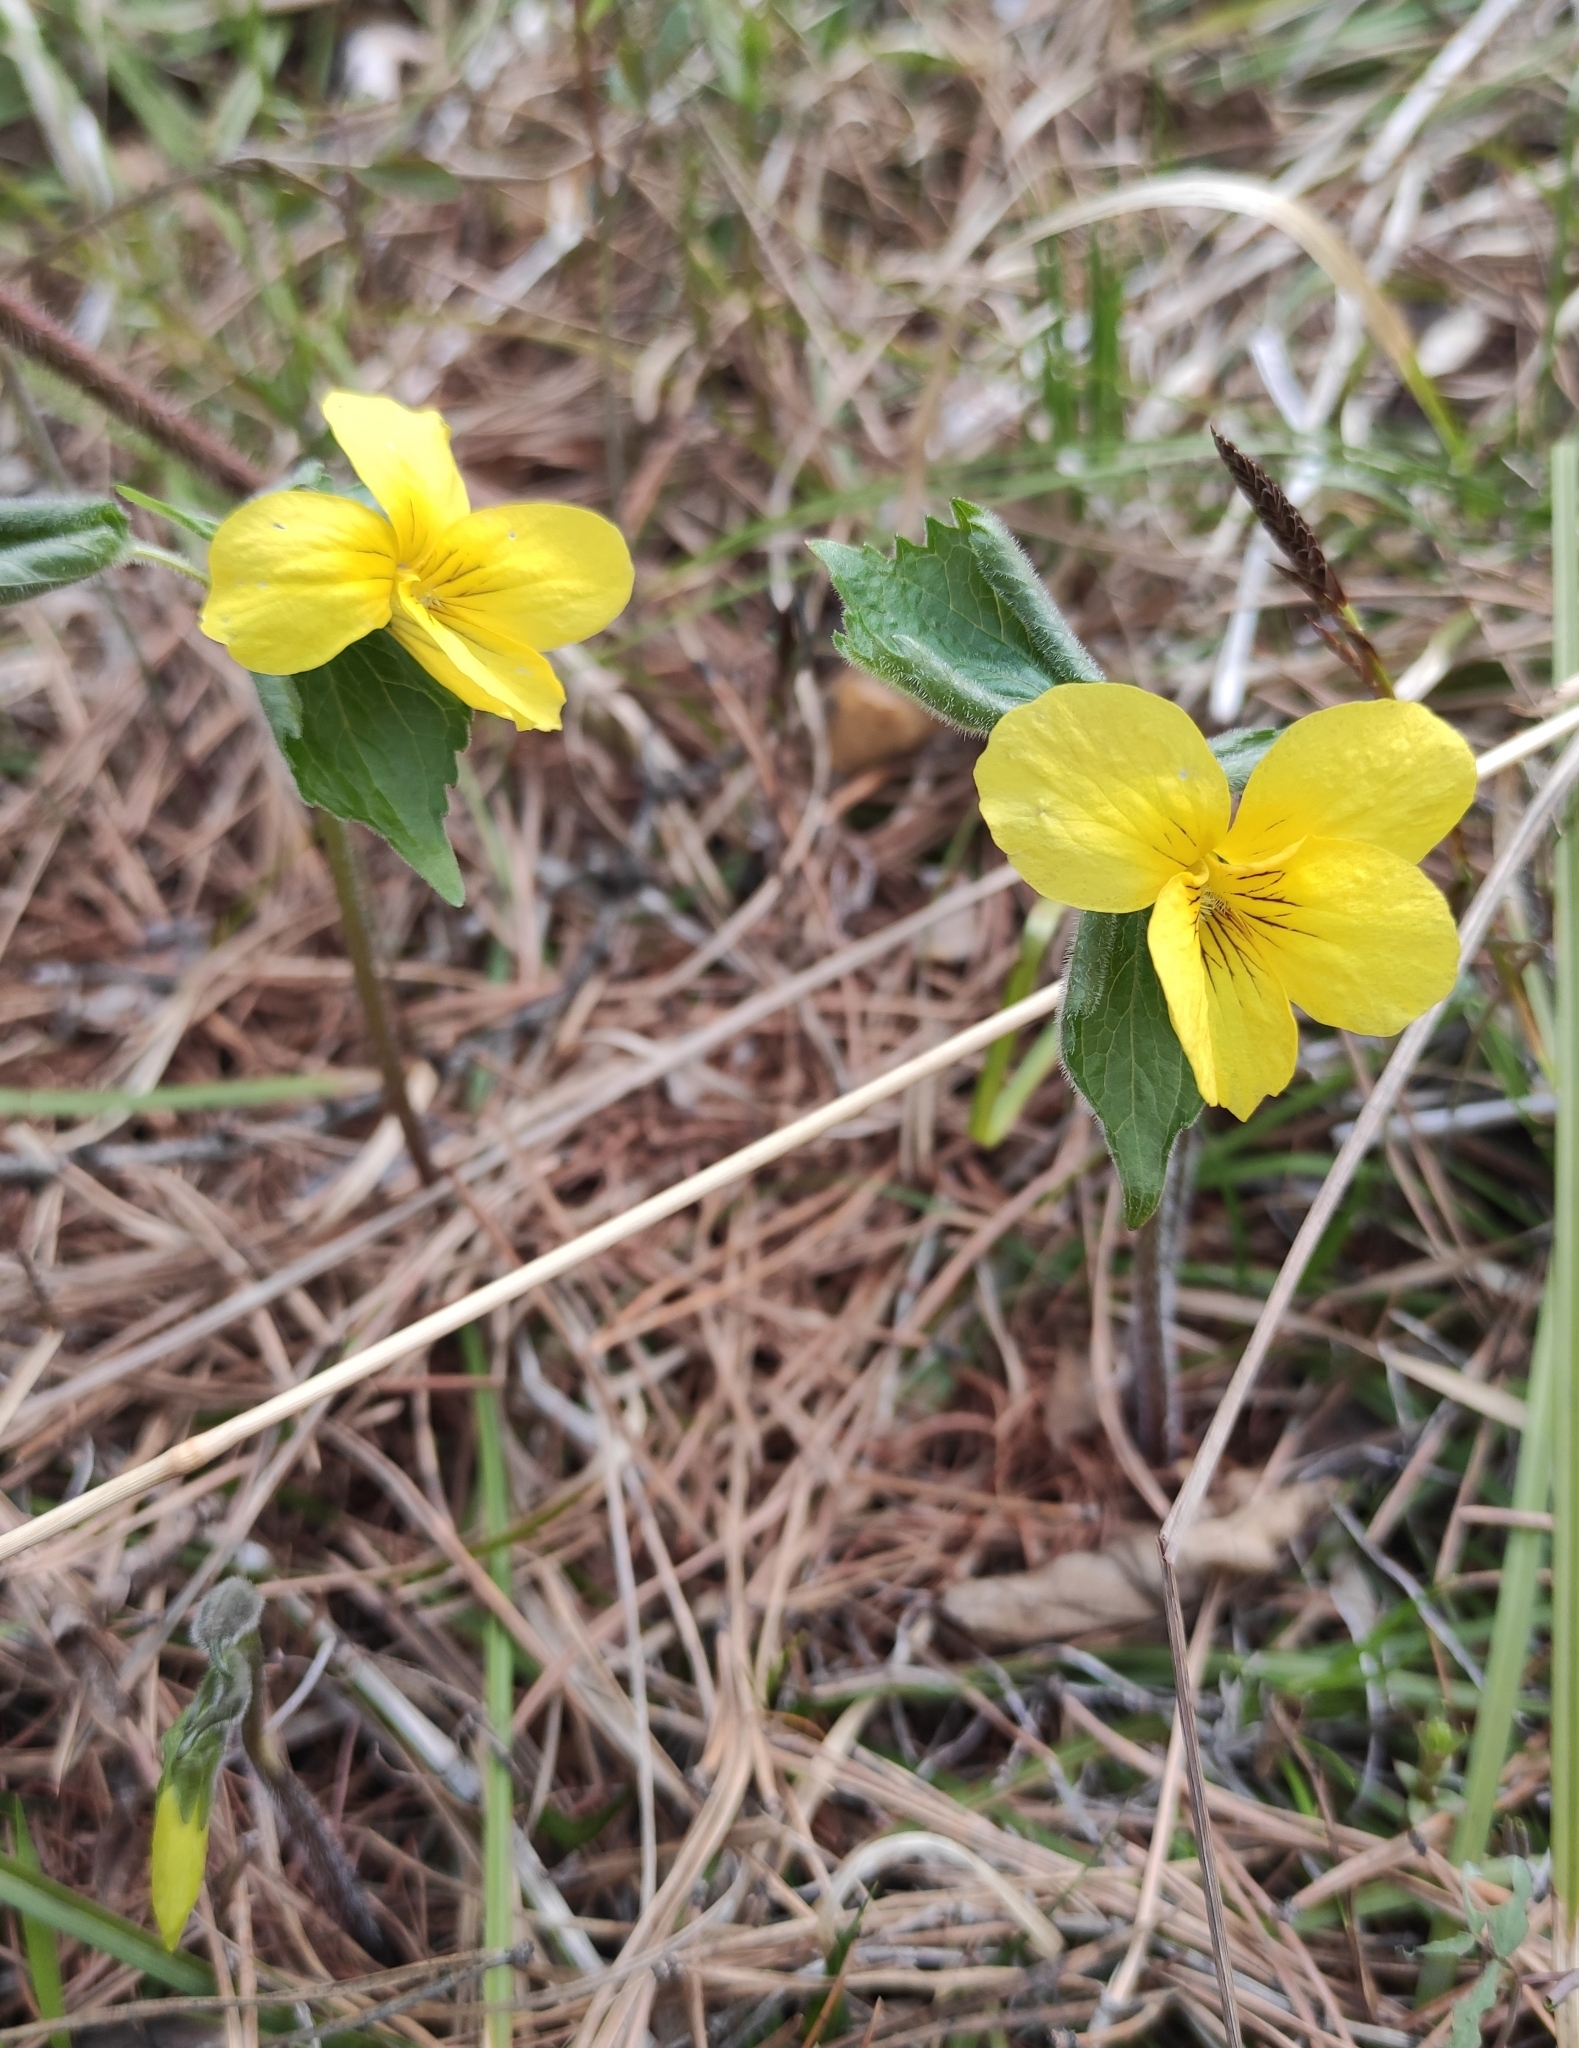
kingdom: Plantae
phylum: Tracheophyta
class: Magnoliopsida
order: Malpighiales
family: Violaceae
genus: Viola
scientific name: Viola uniflora
